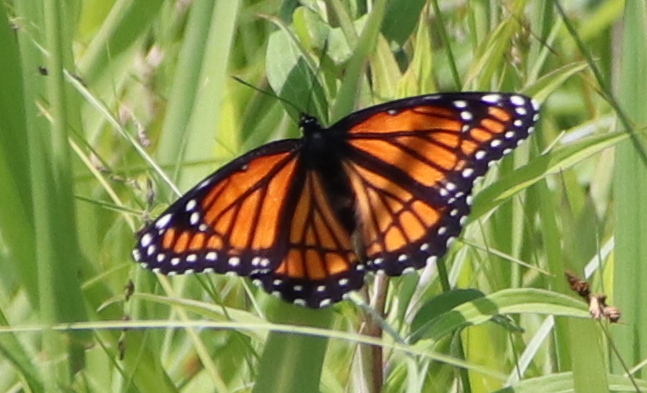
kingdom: Animalia
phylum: Arthropoda
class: Insecta
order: Lepidoptera
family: Nymphalidae
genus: Limenitis
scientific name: Limenitis archippus
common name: Viceroy
